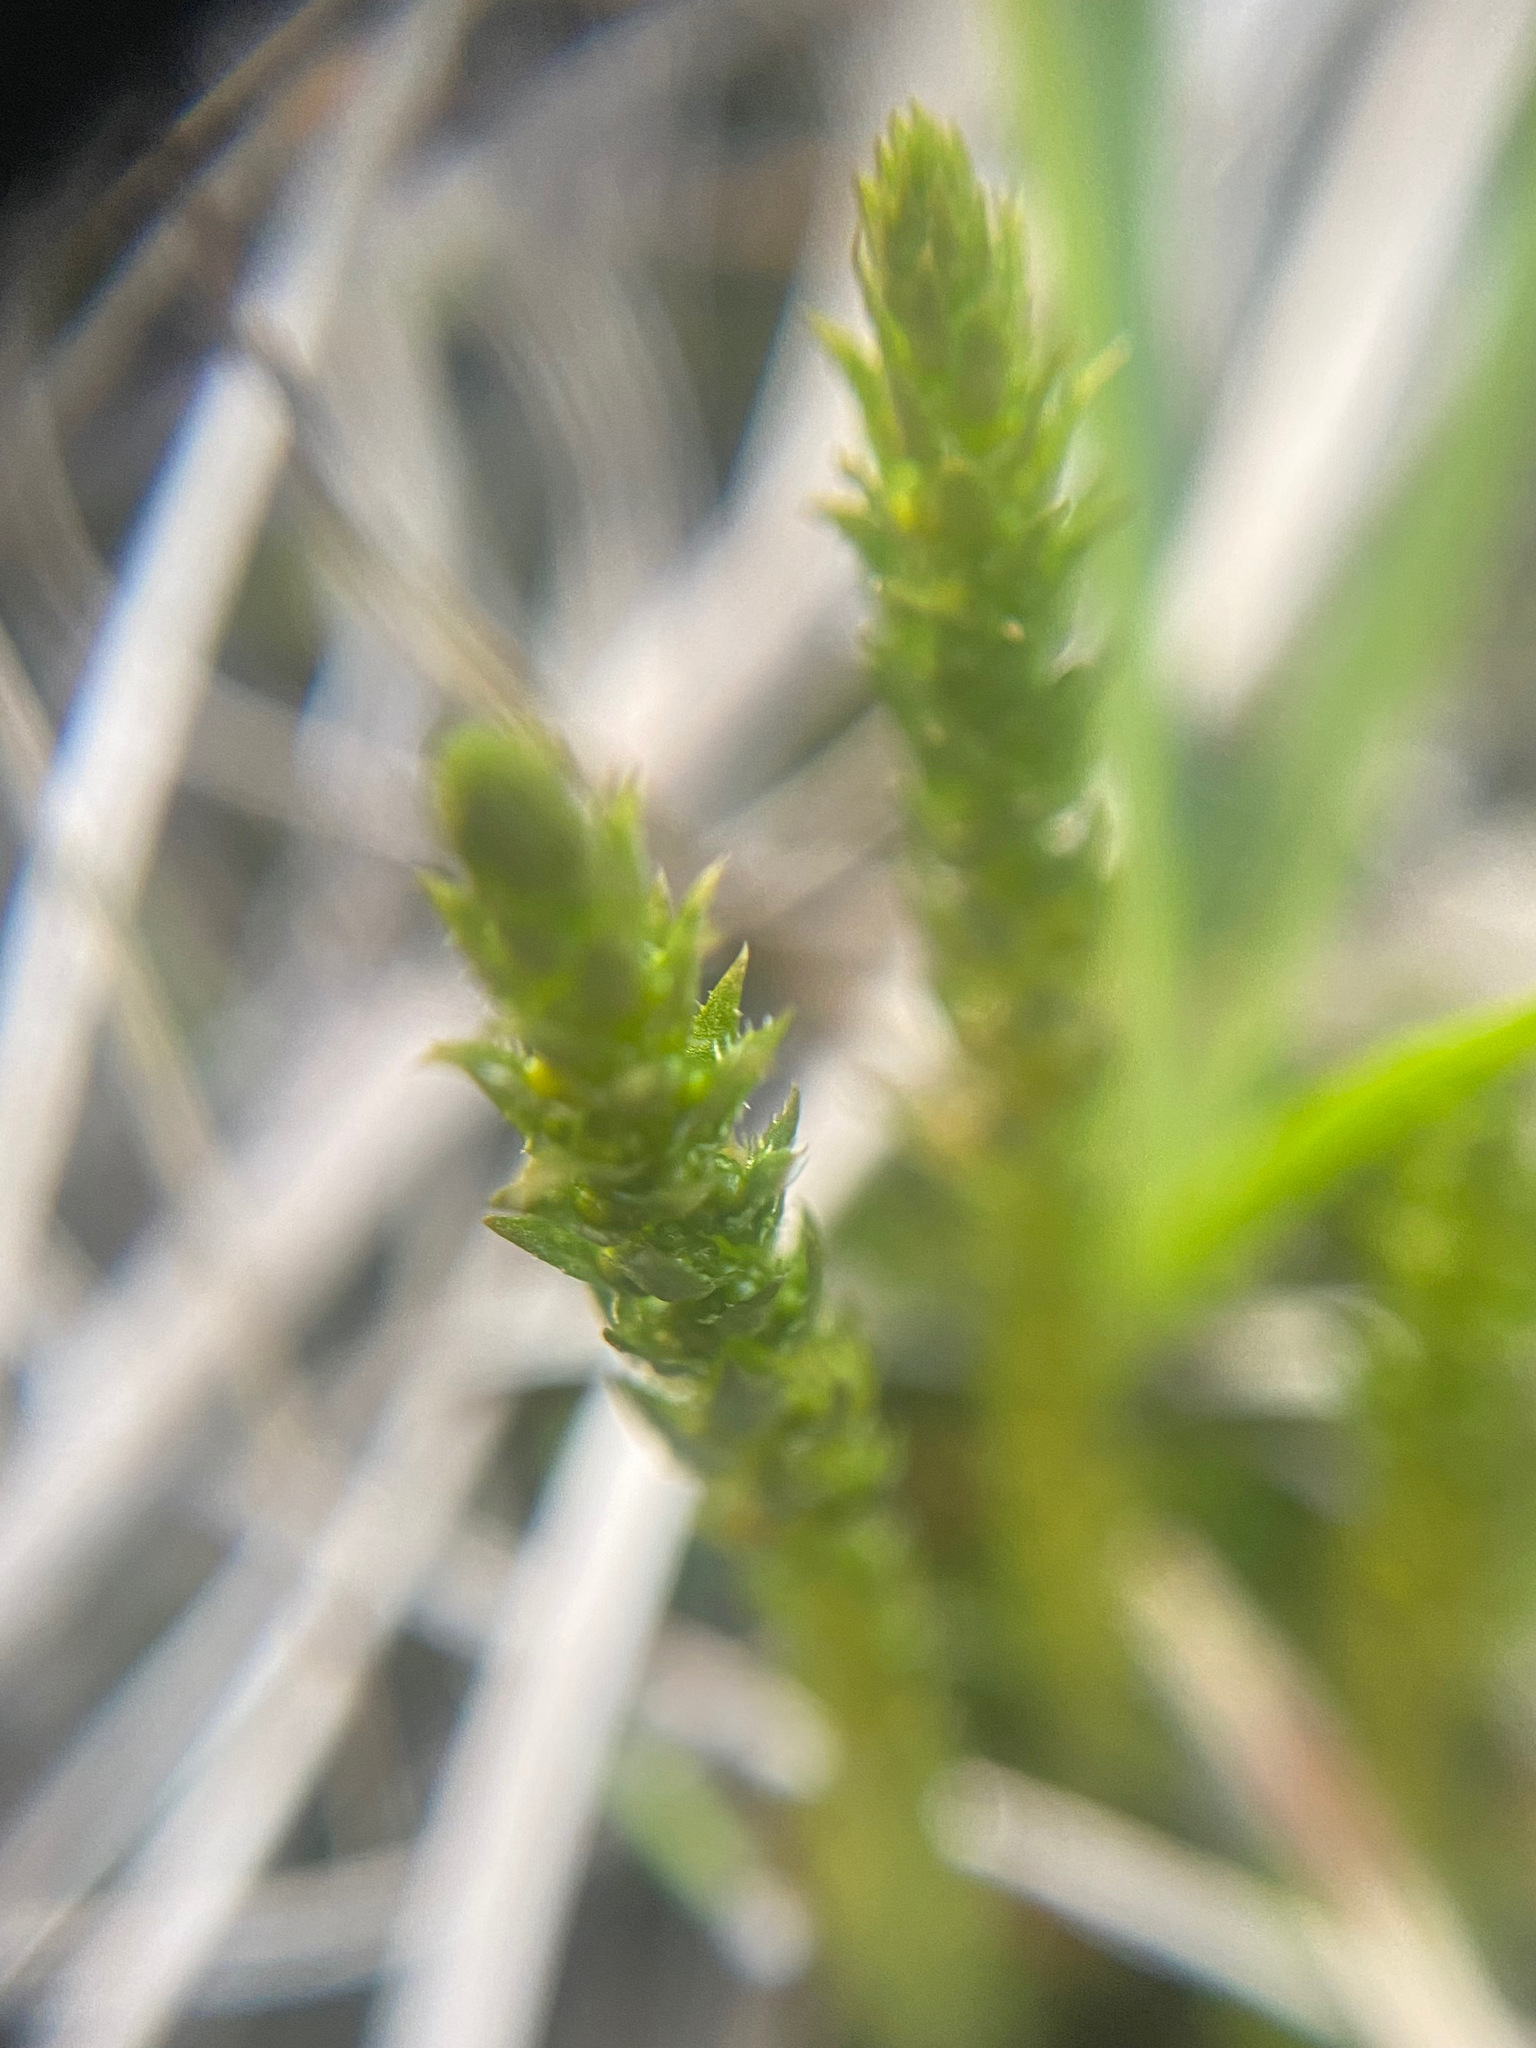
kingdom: Plantae
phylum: Tracheophyta
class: Lycopodiopsida
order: Selaginellales
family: Selaginellaceae
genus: Selaginella
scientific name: Selaginella selaginoides
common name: Prickly mountain-moss
